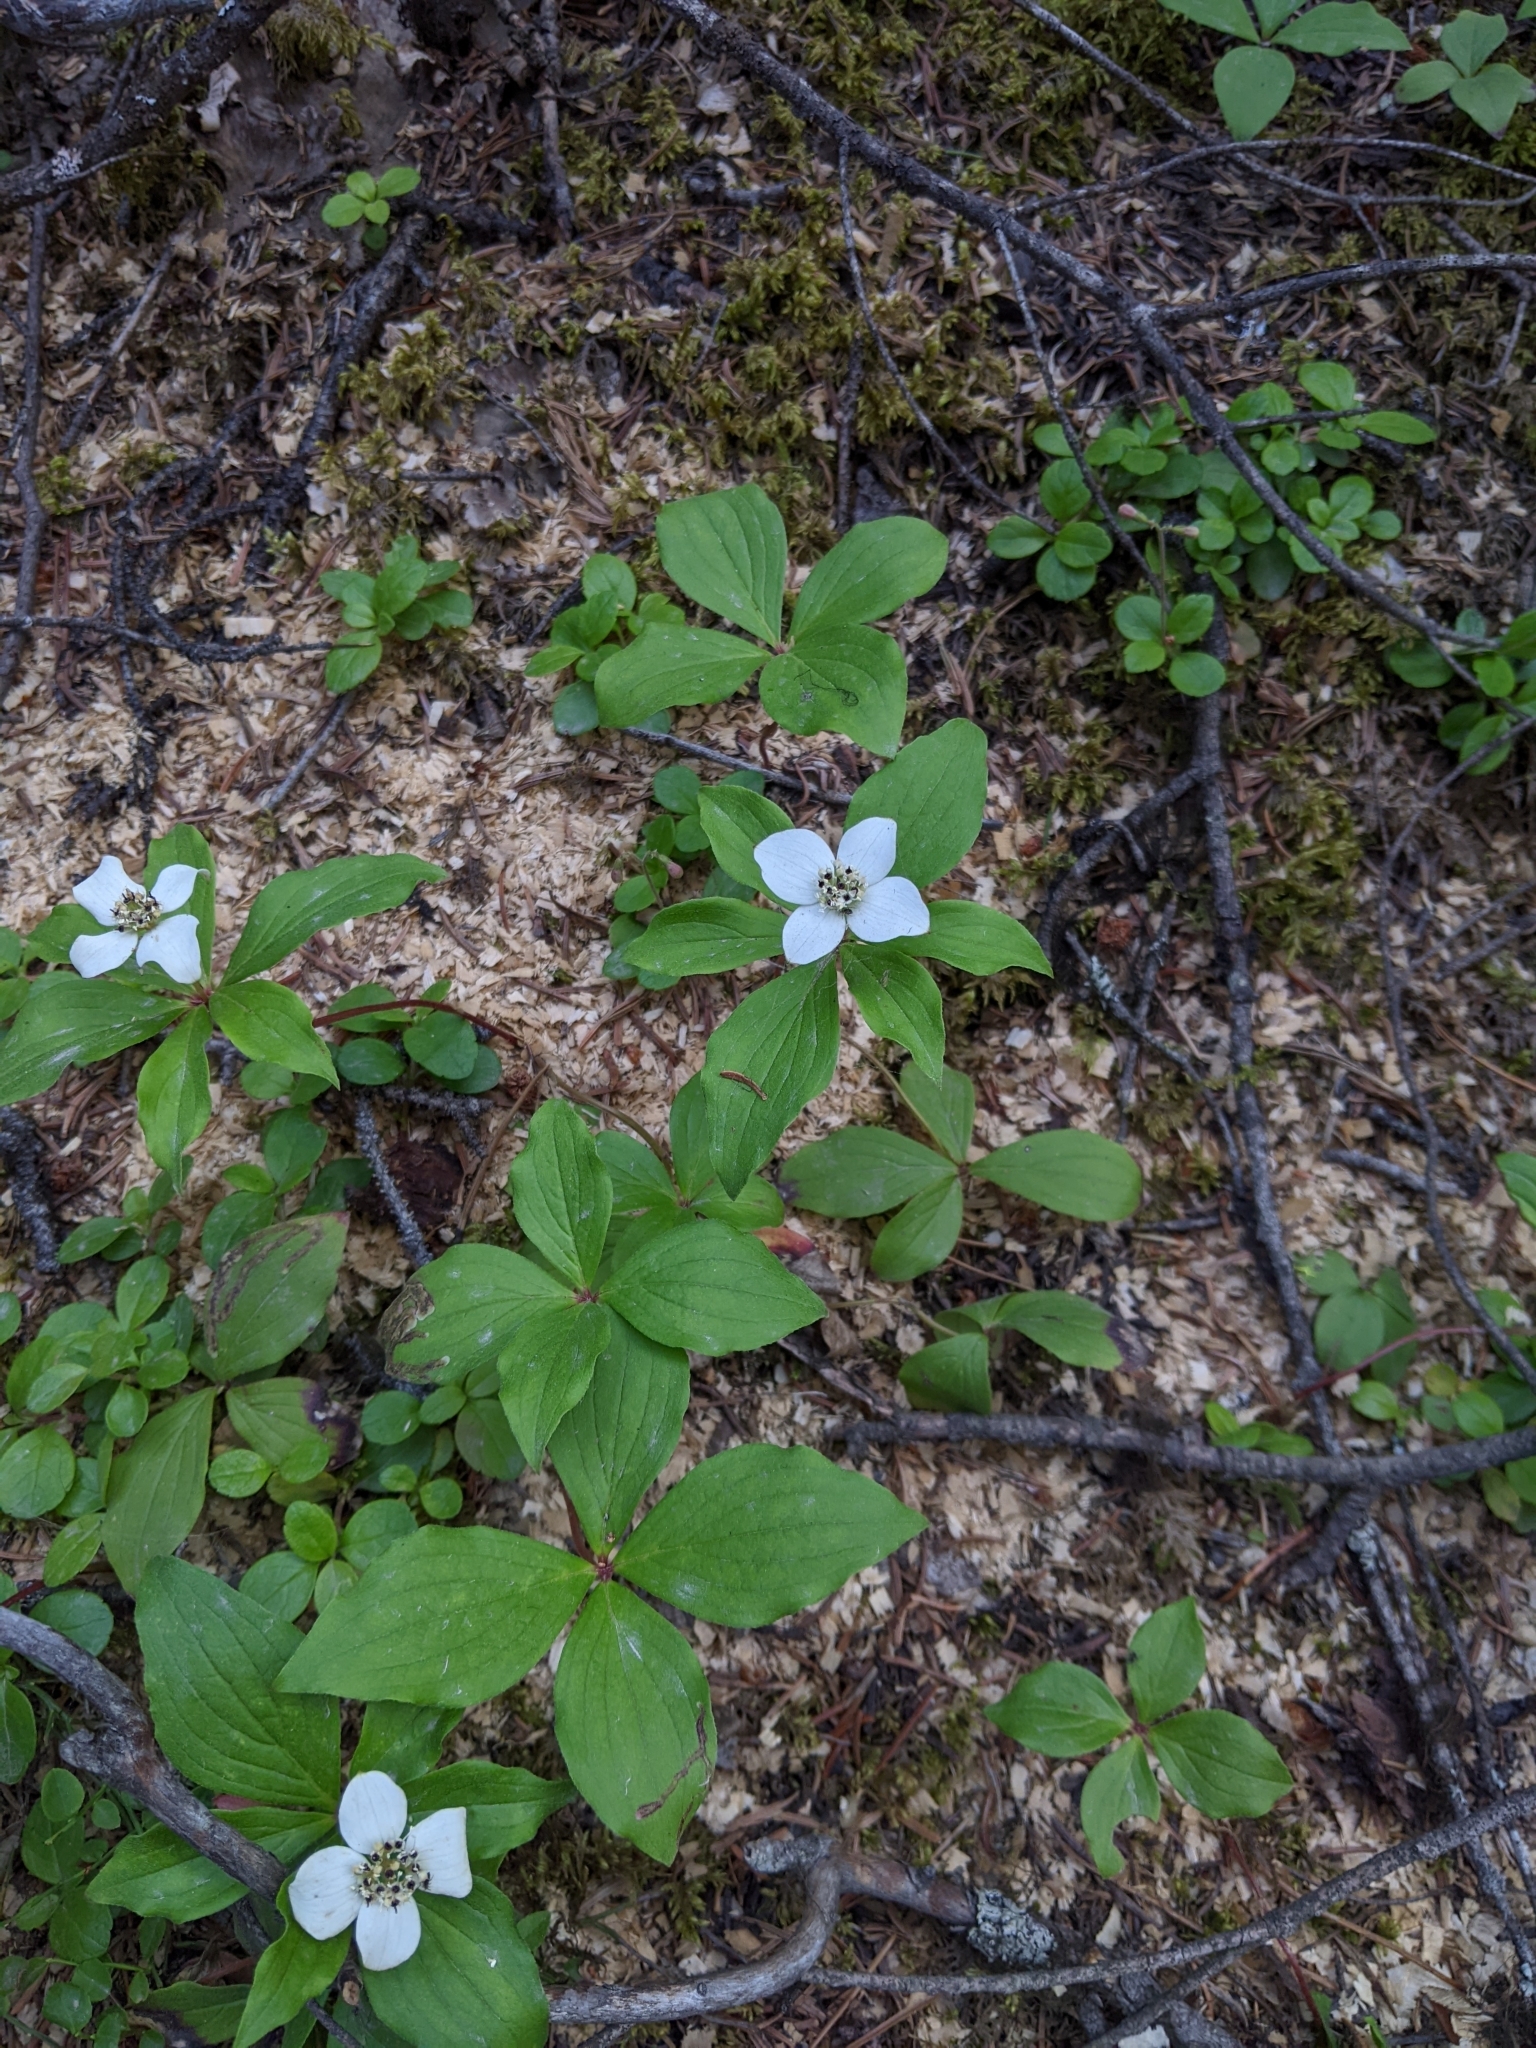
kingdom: Plantae
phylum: Tracheophyta
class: Magnoliopsida
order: Cornales
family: Cornaceae
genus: Cornus
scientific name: Cornus canadensis
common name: Creeping dogwood
